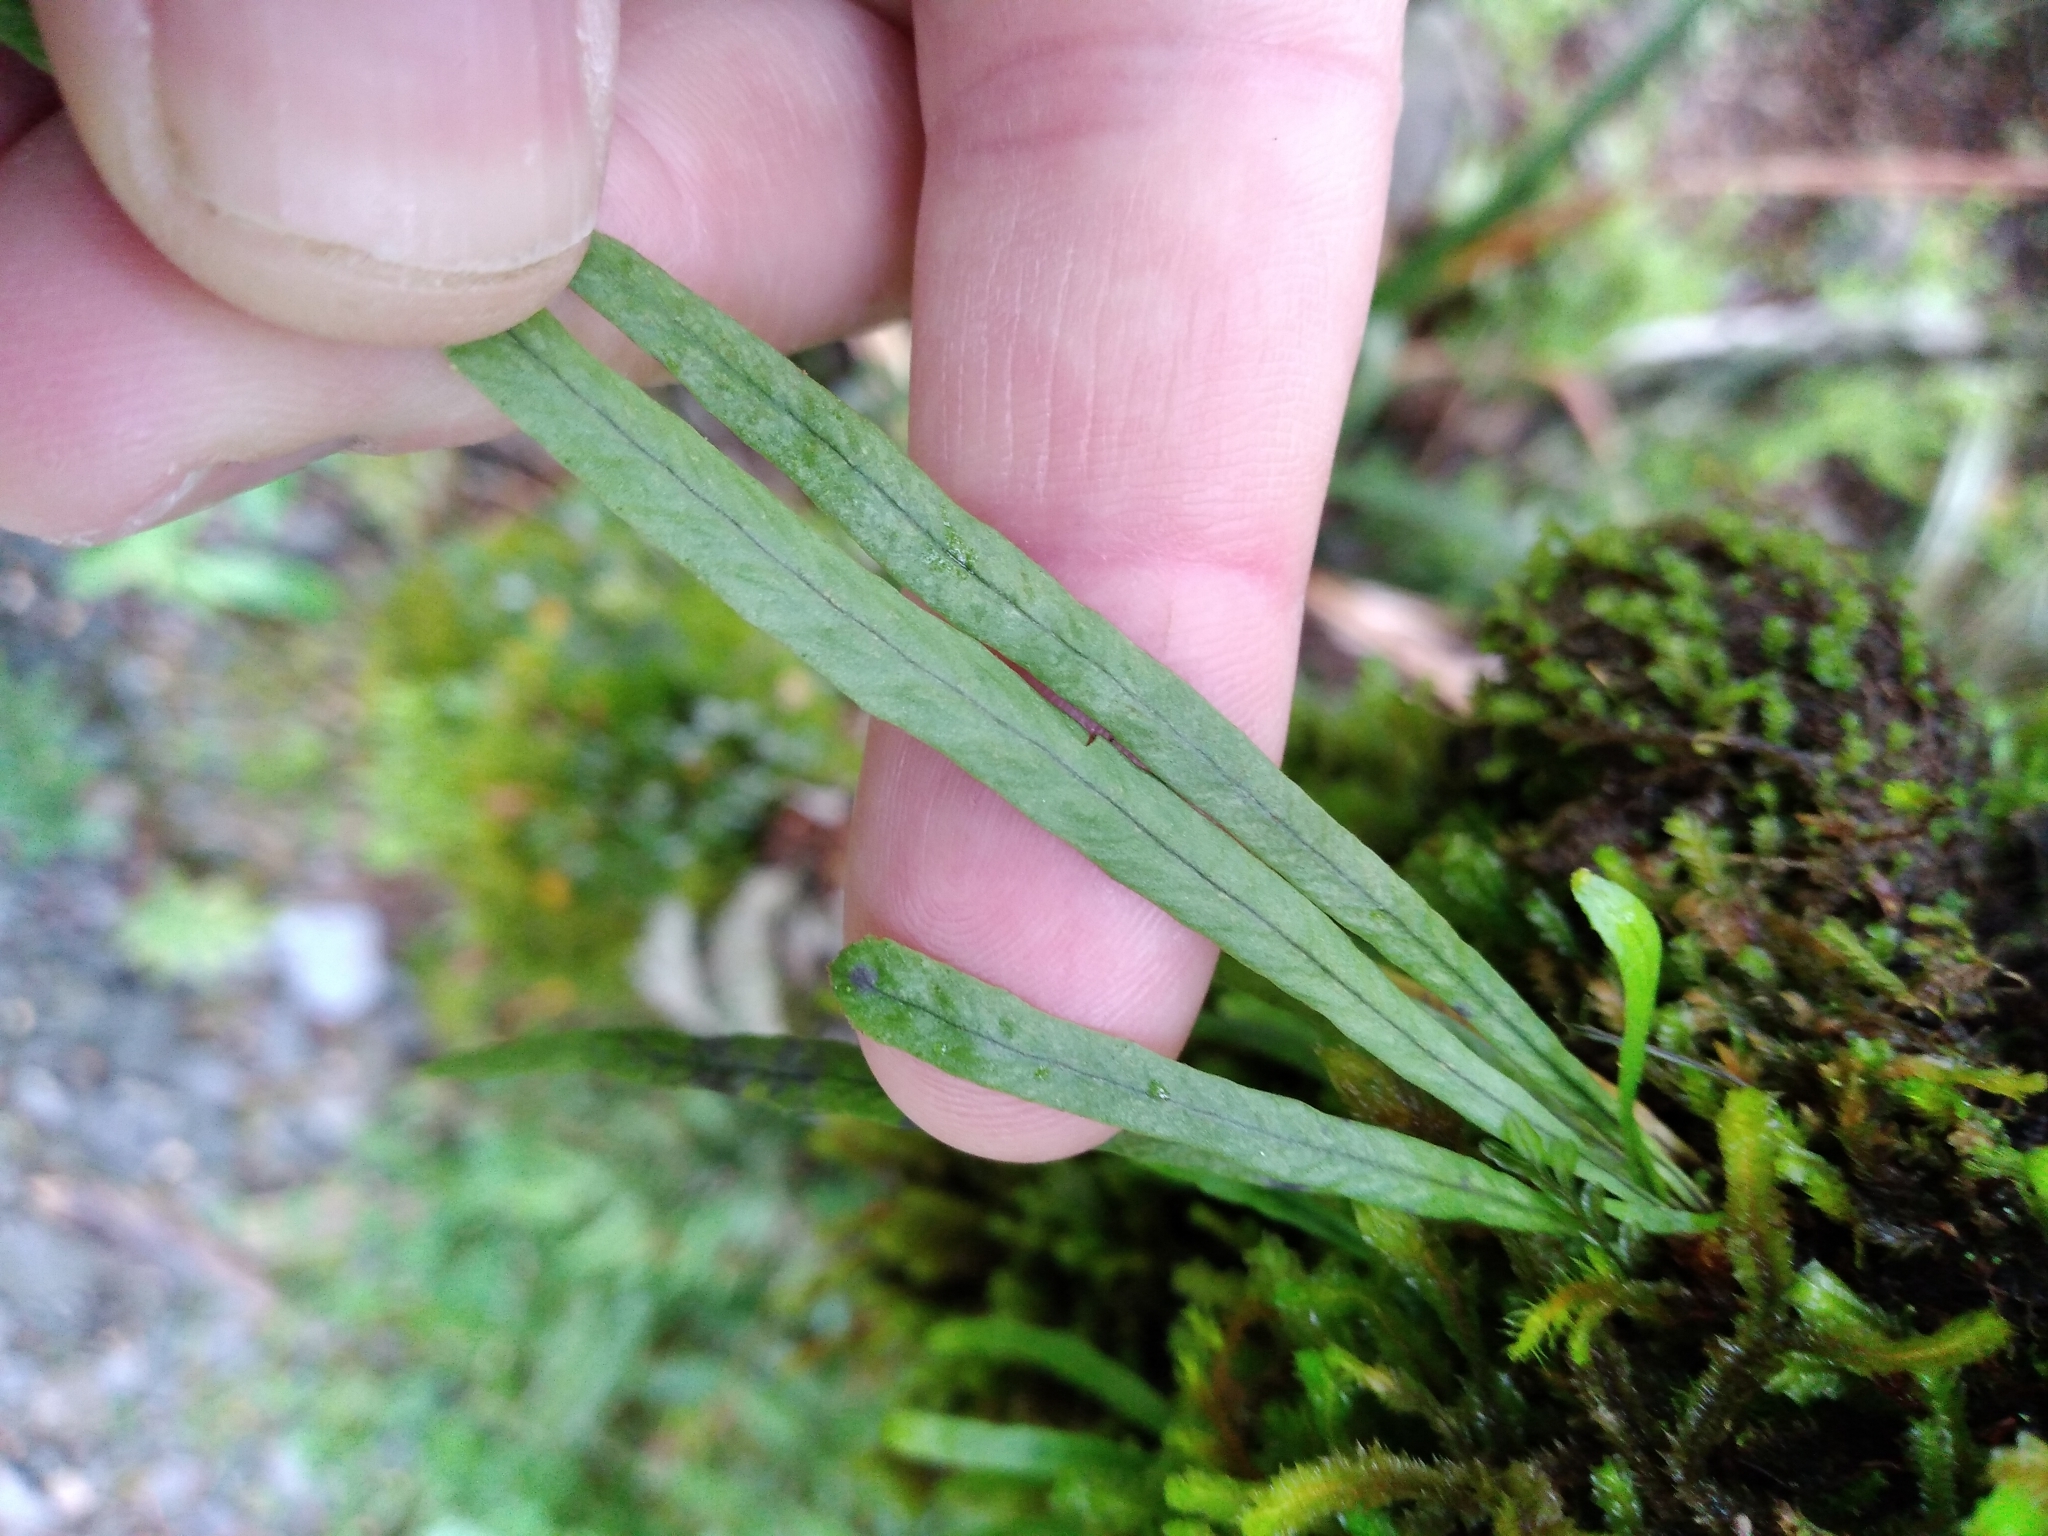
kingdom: Plantae
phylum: Tracheophyta
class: Polypodiopsida
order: Polypodiales
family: Polypodiaceae
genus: Notogrammitis
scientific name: Notogrammitis angustifolia
